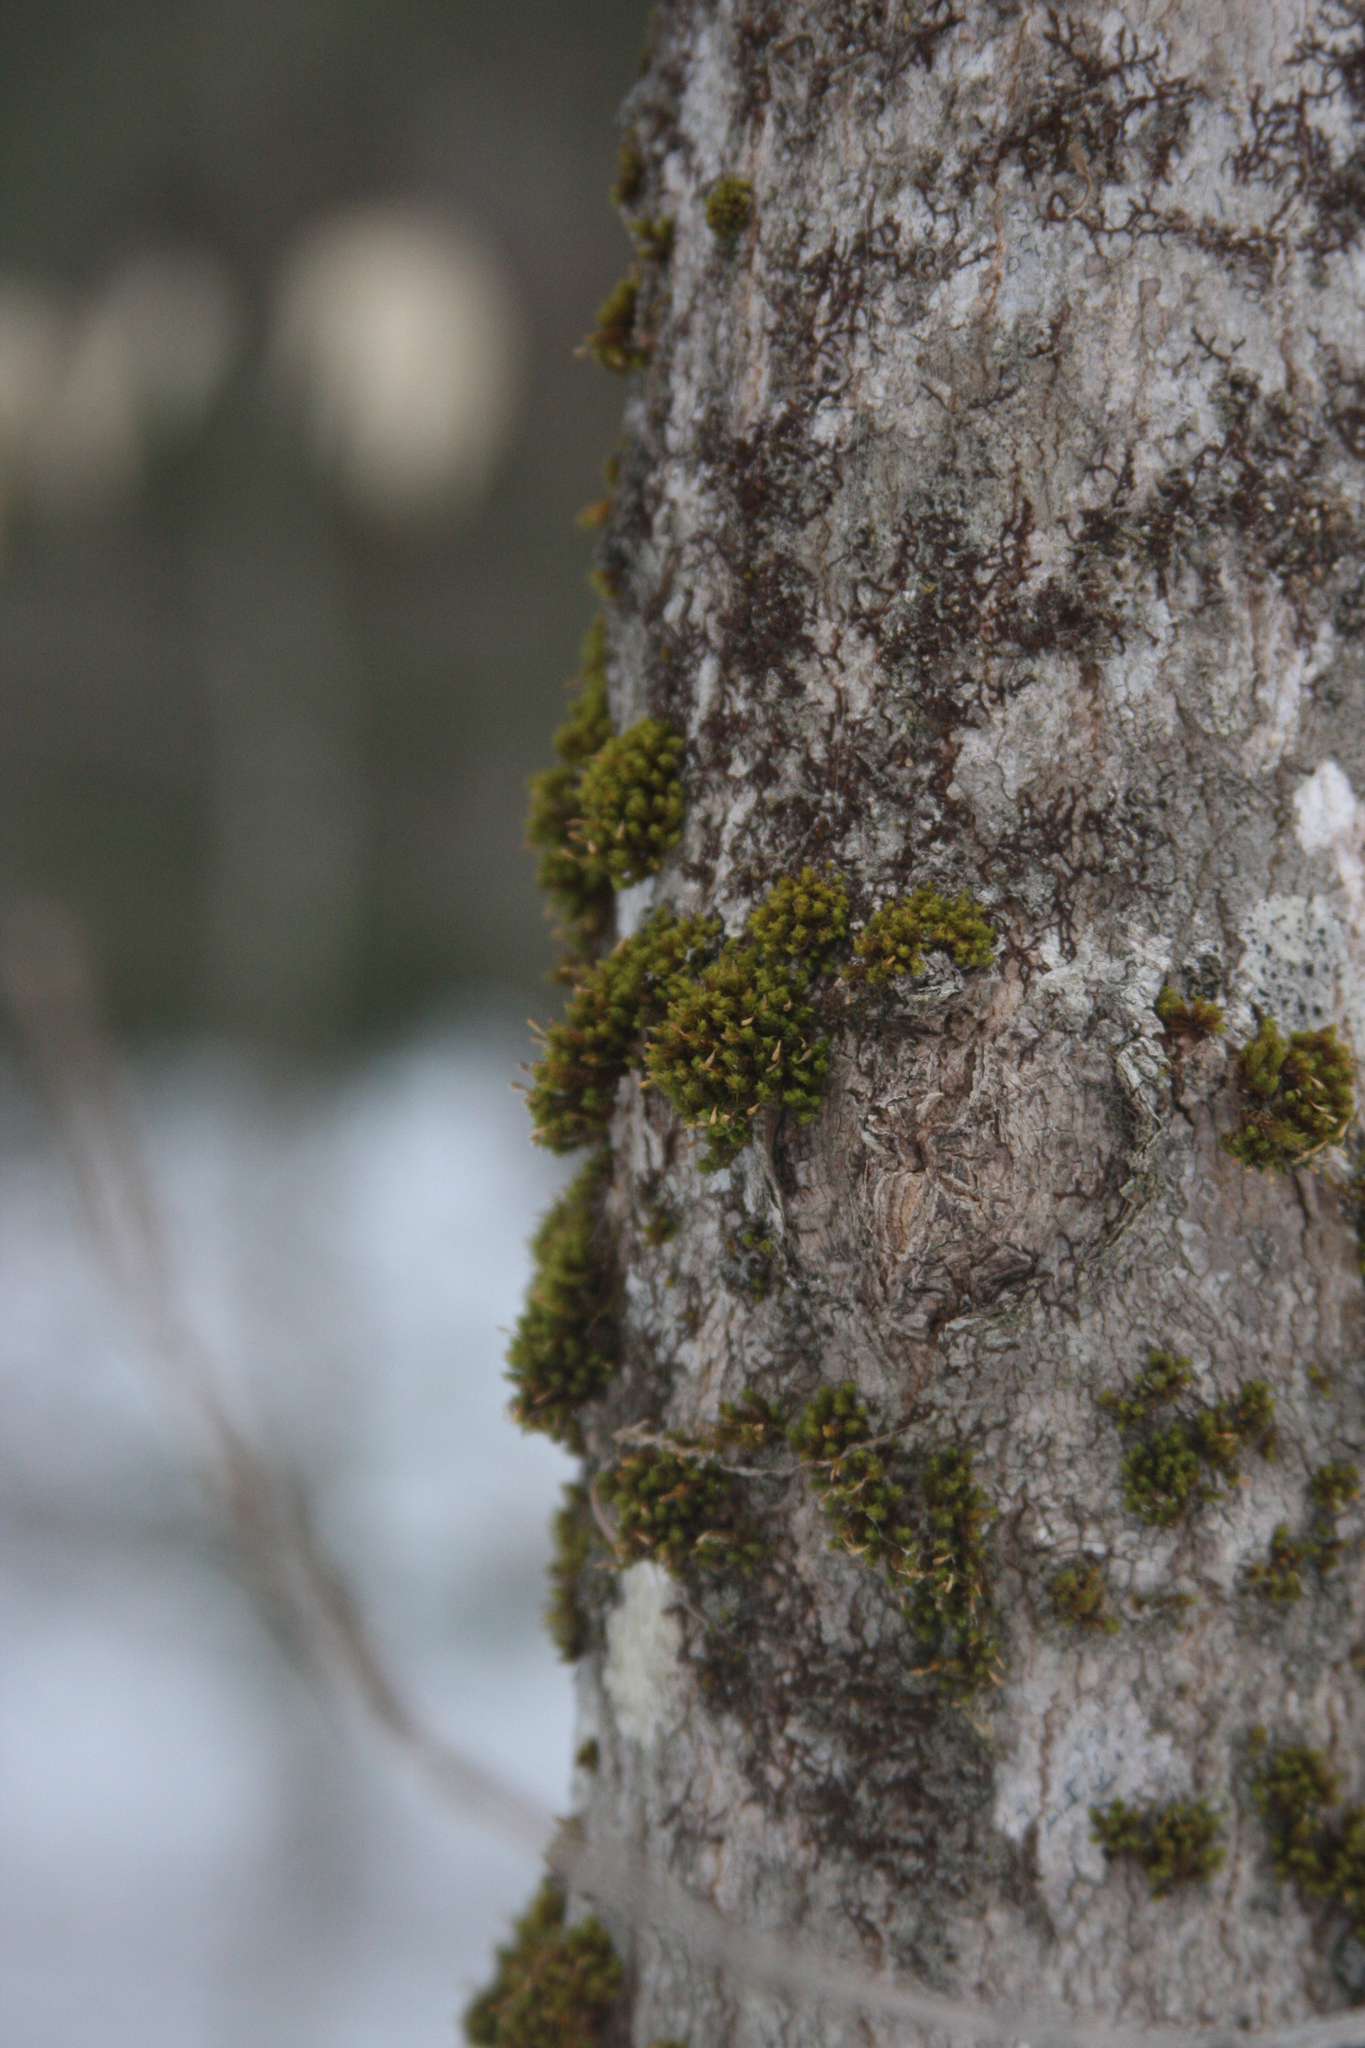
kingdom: Plantae
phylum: Bryophyta
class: Bryopsida
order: Orthotrichales
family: Orthotrichaceae
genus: Ulota
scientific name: Ulota crispa
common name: Crisped pincushion moss
